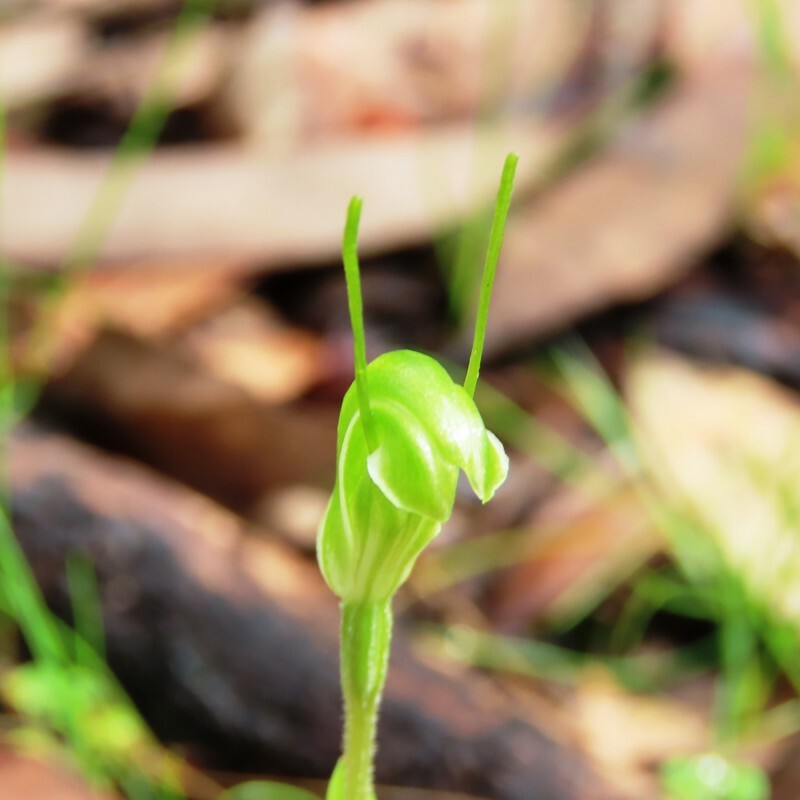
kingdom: Plantae
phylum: Tracheophyta
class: Liliopsida
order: Asparagales
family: Orchidaceae
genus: Pterostylis
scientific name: Pterostylis nana
